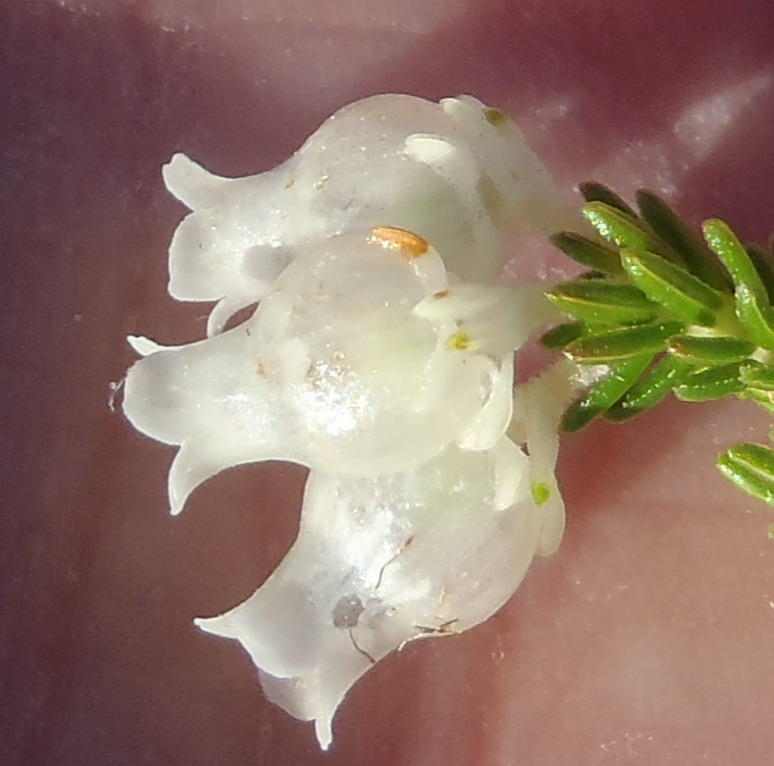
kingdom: Plantae
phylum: Tracheophyta
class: Magnoliopsida
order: Ericales
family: Ericaceae
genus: Erica
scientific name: Erica glomiflora
